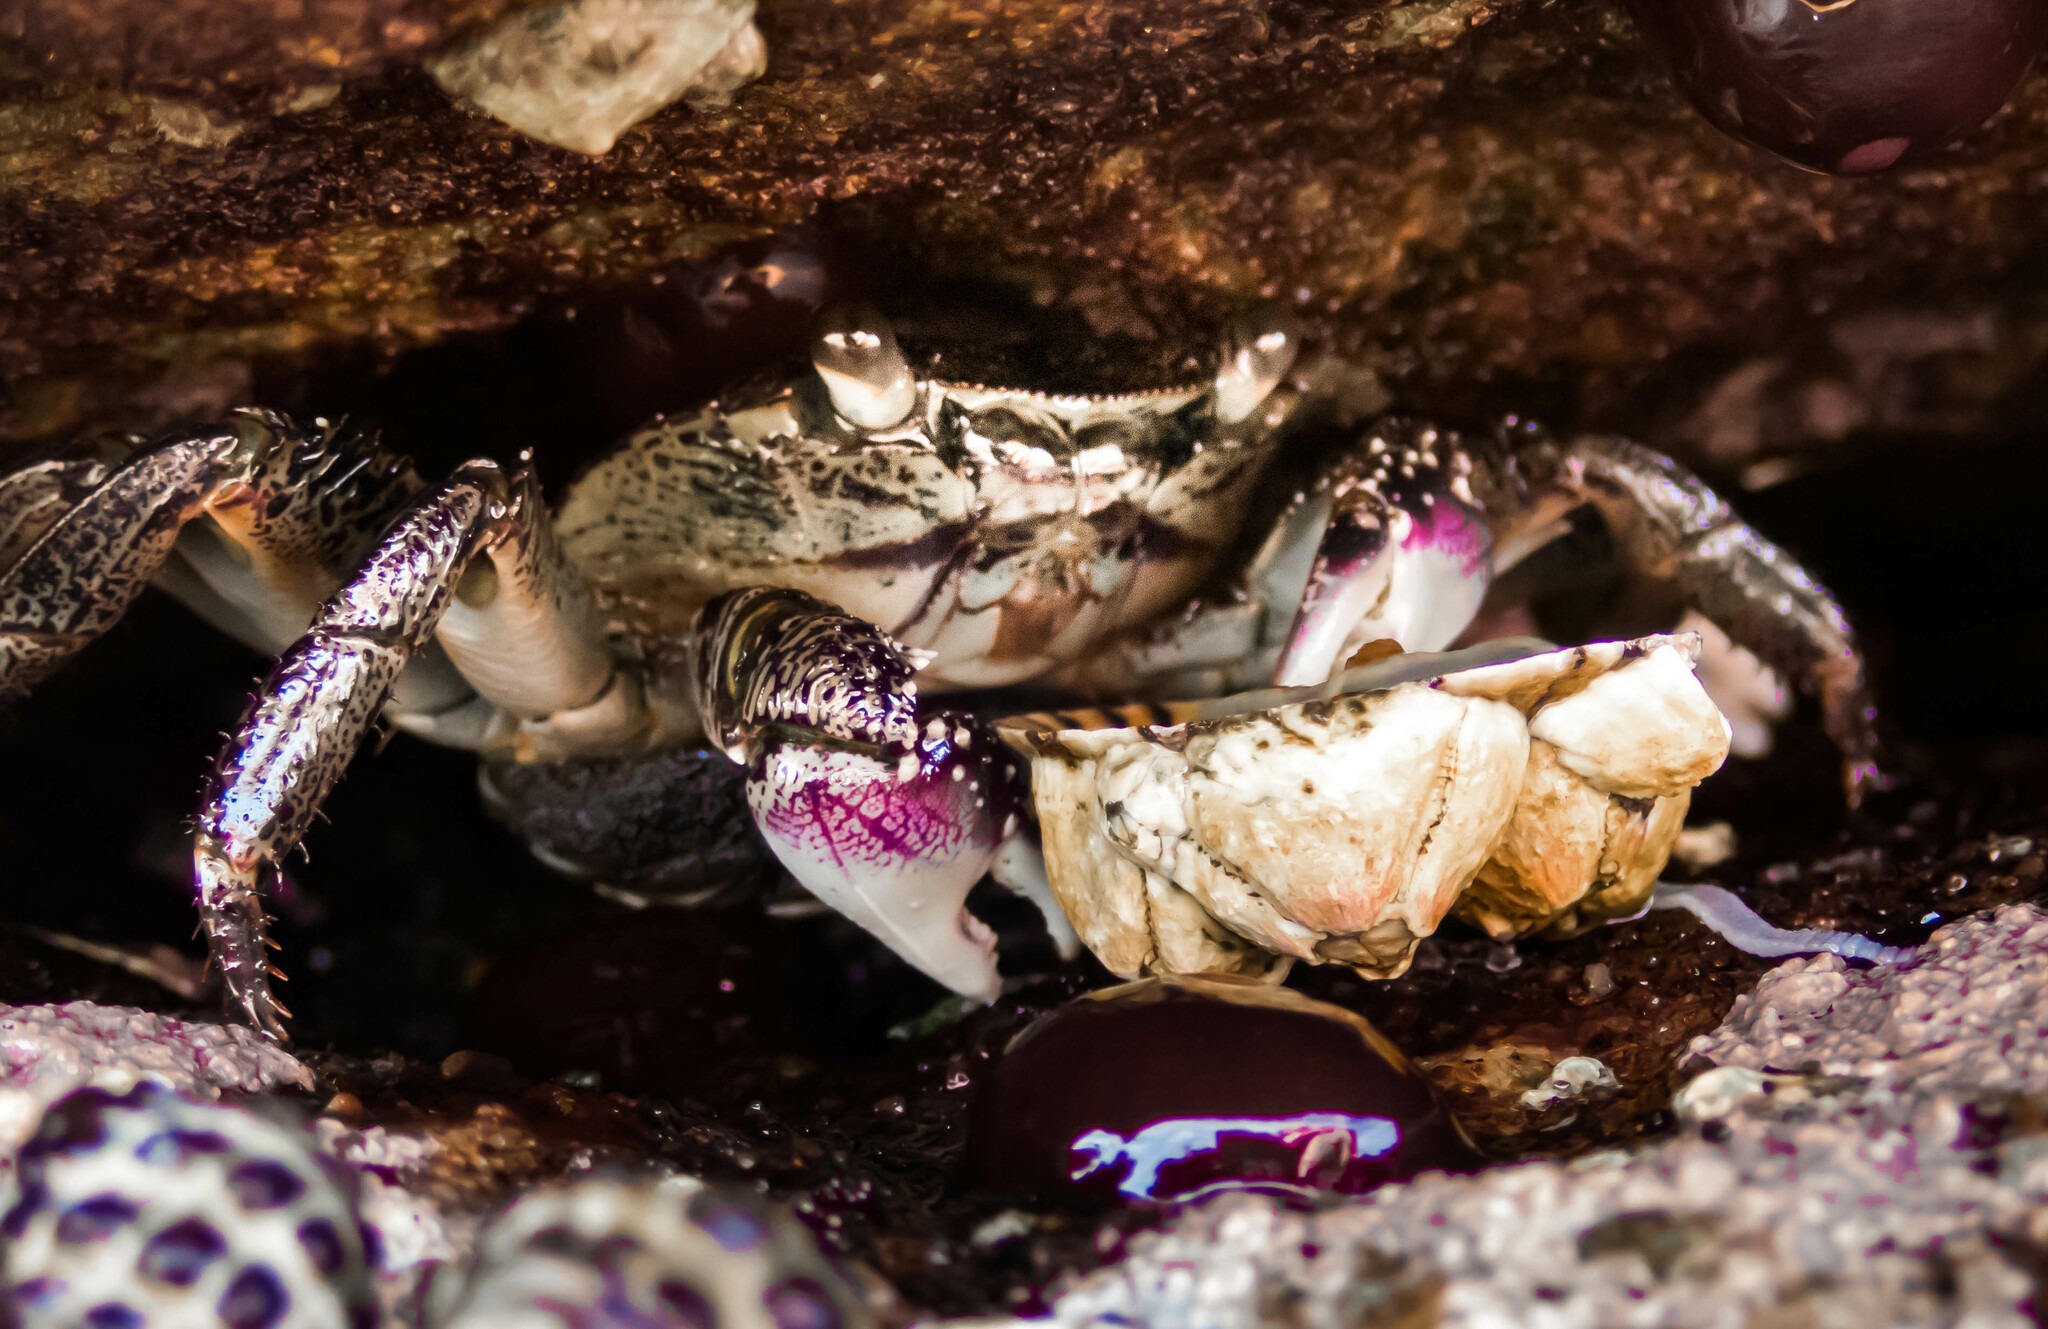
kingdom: Animalia
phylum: Arthropoda
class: Malacostraca
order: Decapoda
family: Grapsidae
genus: Leptograpsus
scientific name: Leptograpsus variegatus
